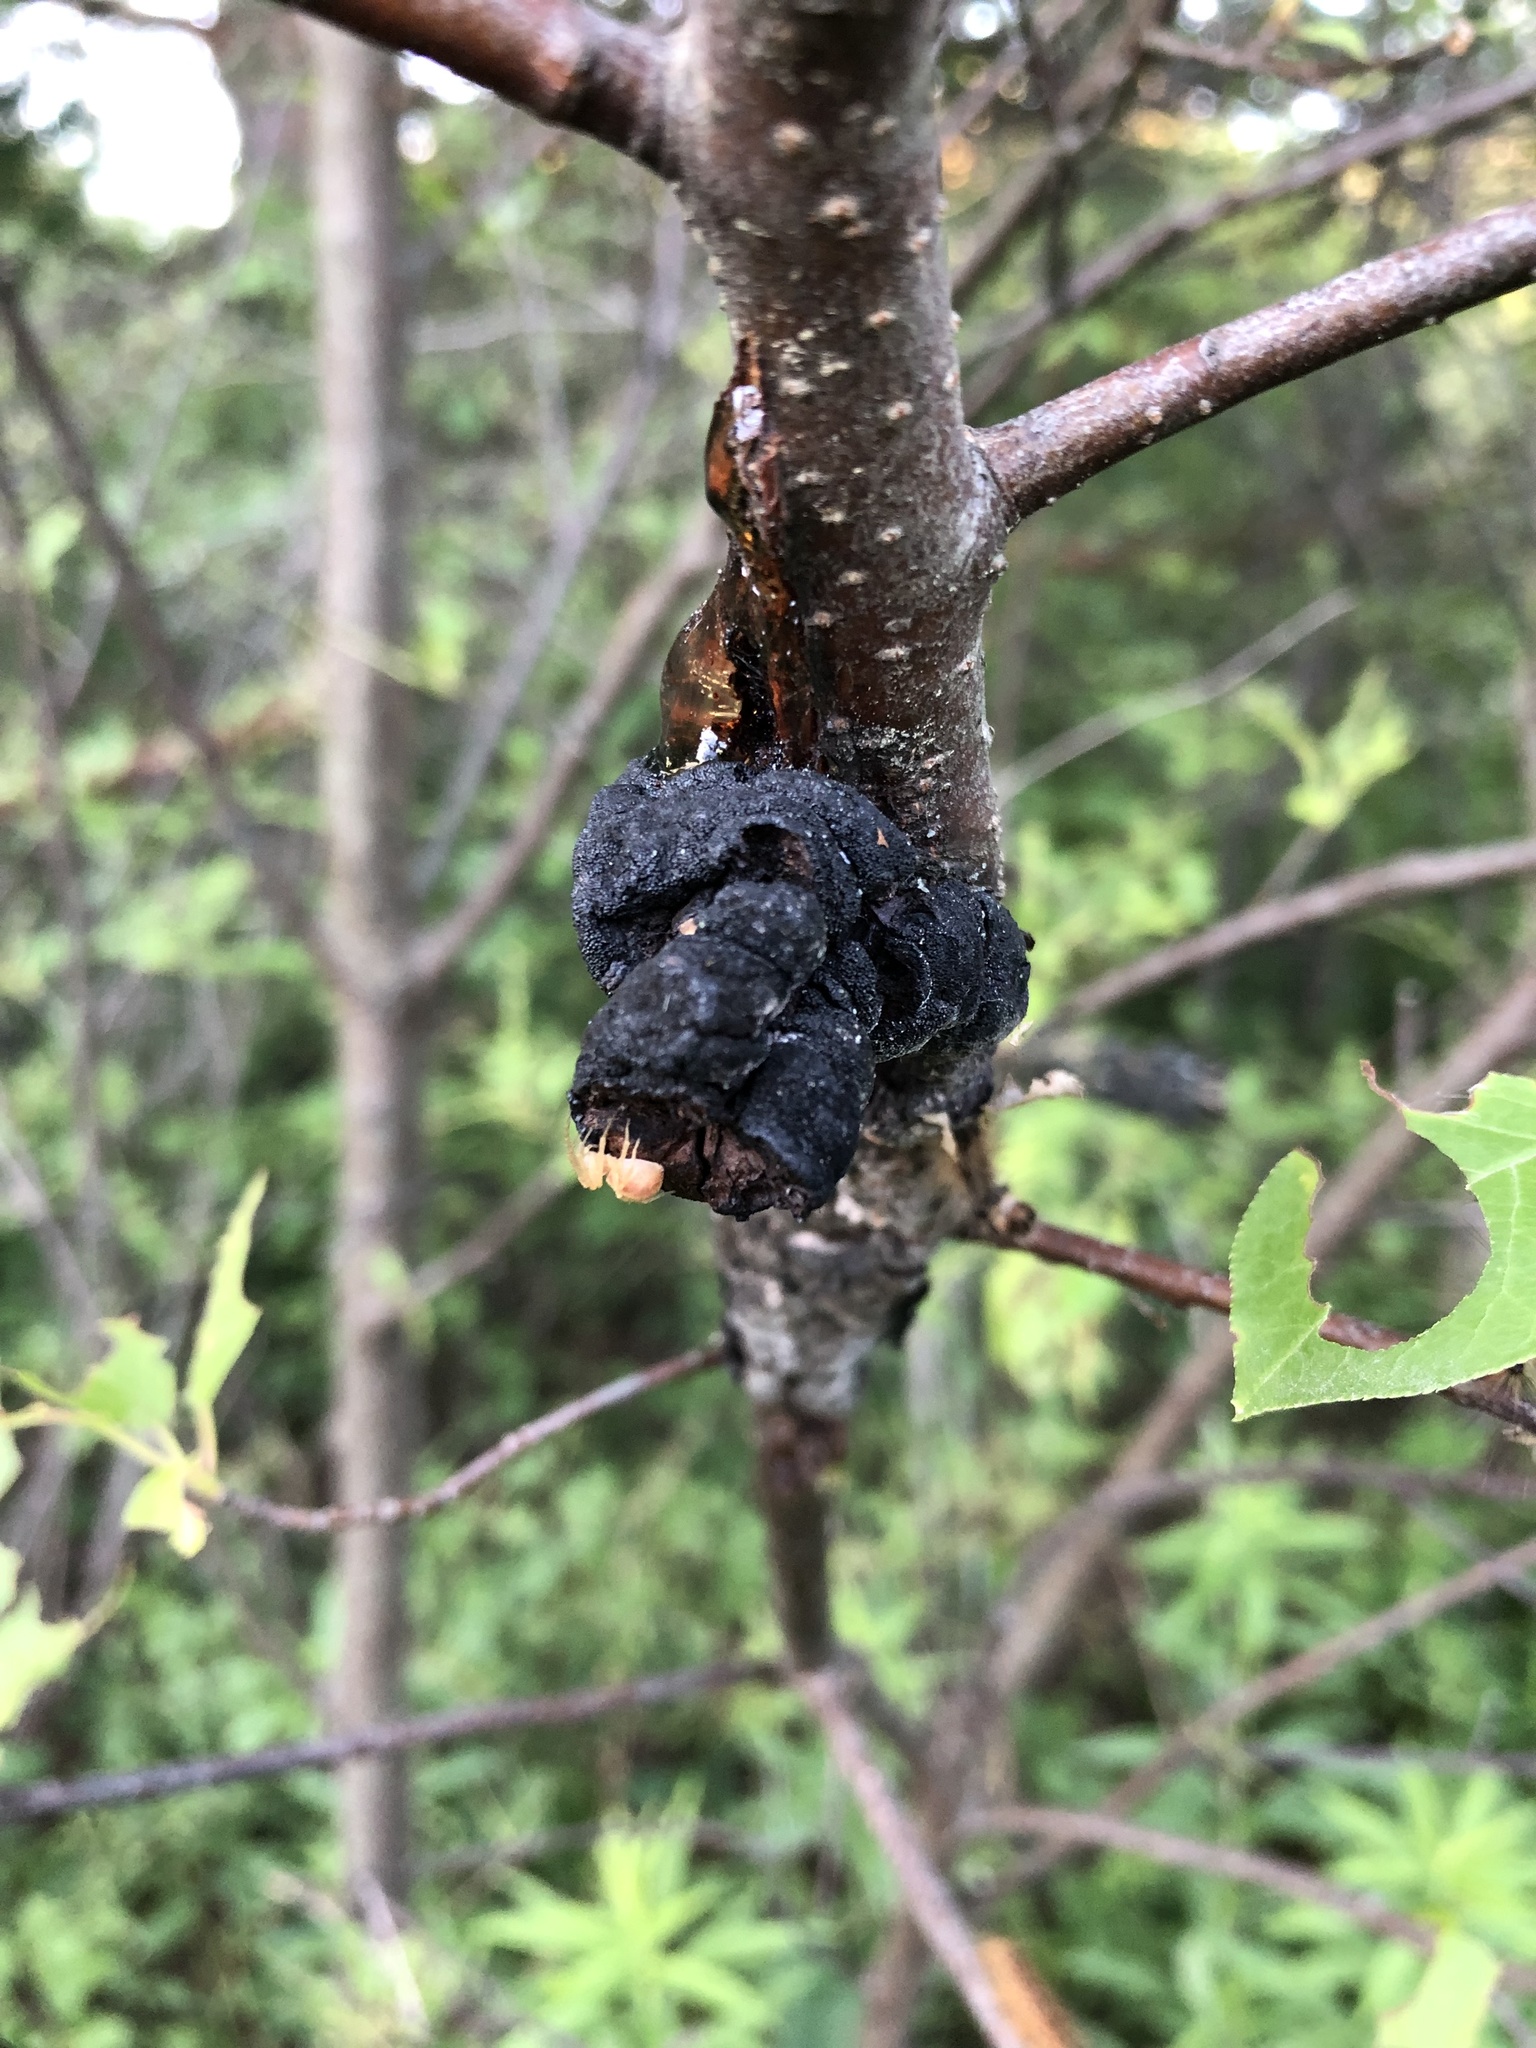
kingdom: Fungi
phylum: Ascomycota
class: Dothideomycetes
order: Venturiales
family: Venturiaceae
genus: Apiosporina
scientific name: Apiosporina morbosa
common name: Black knot
